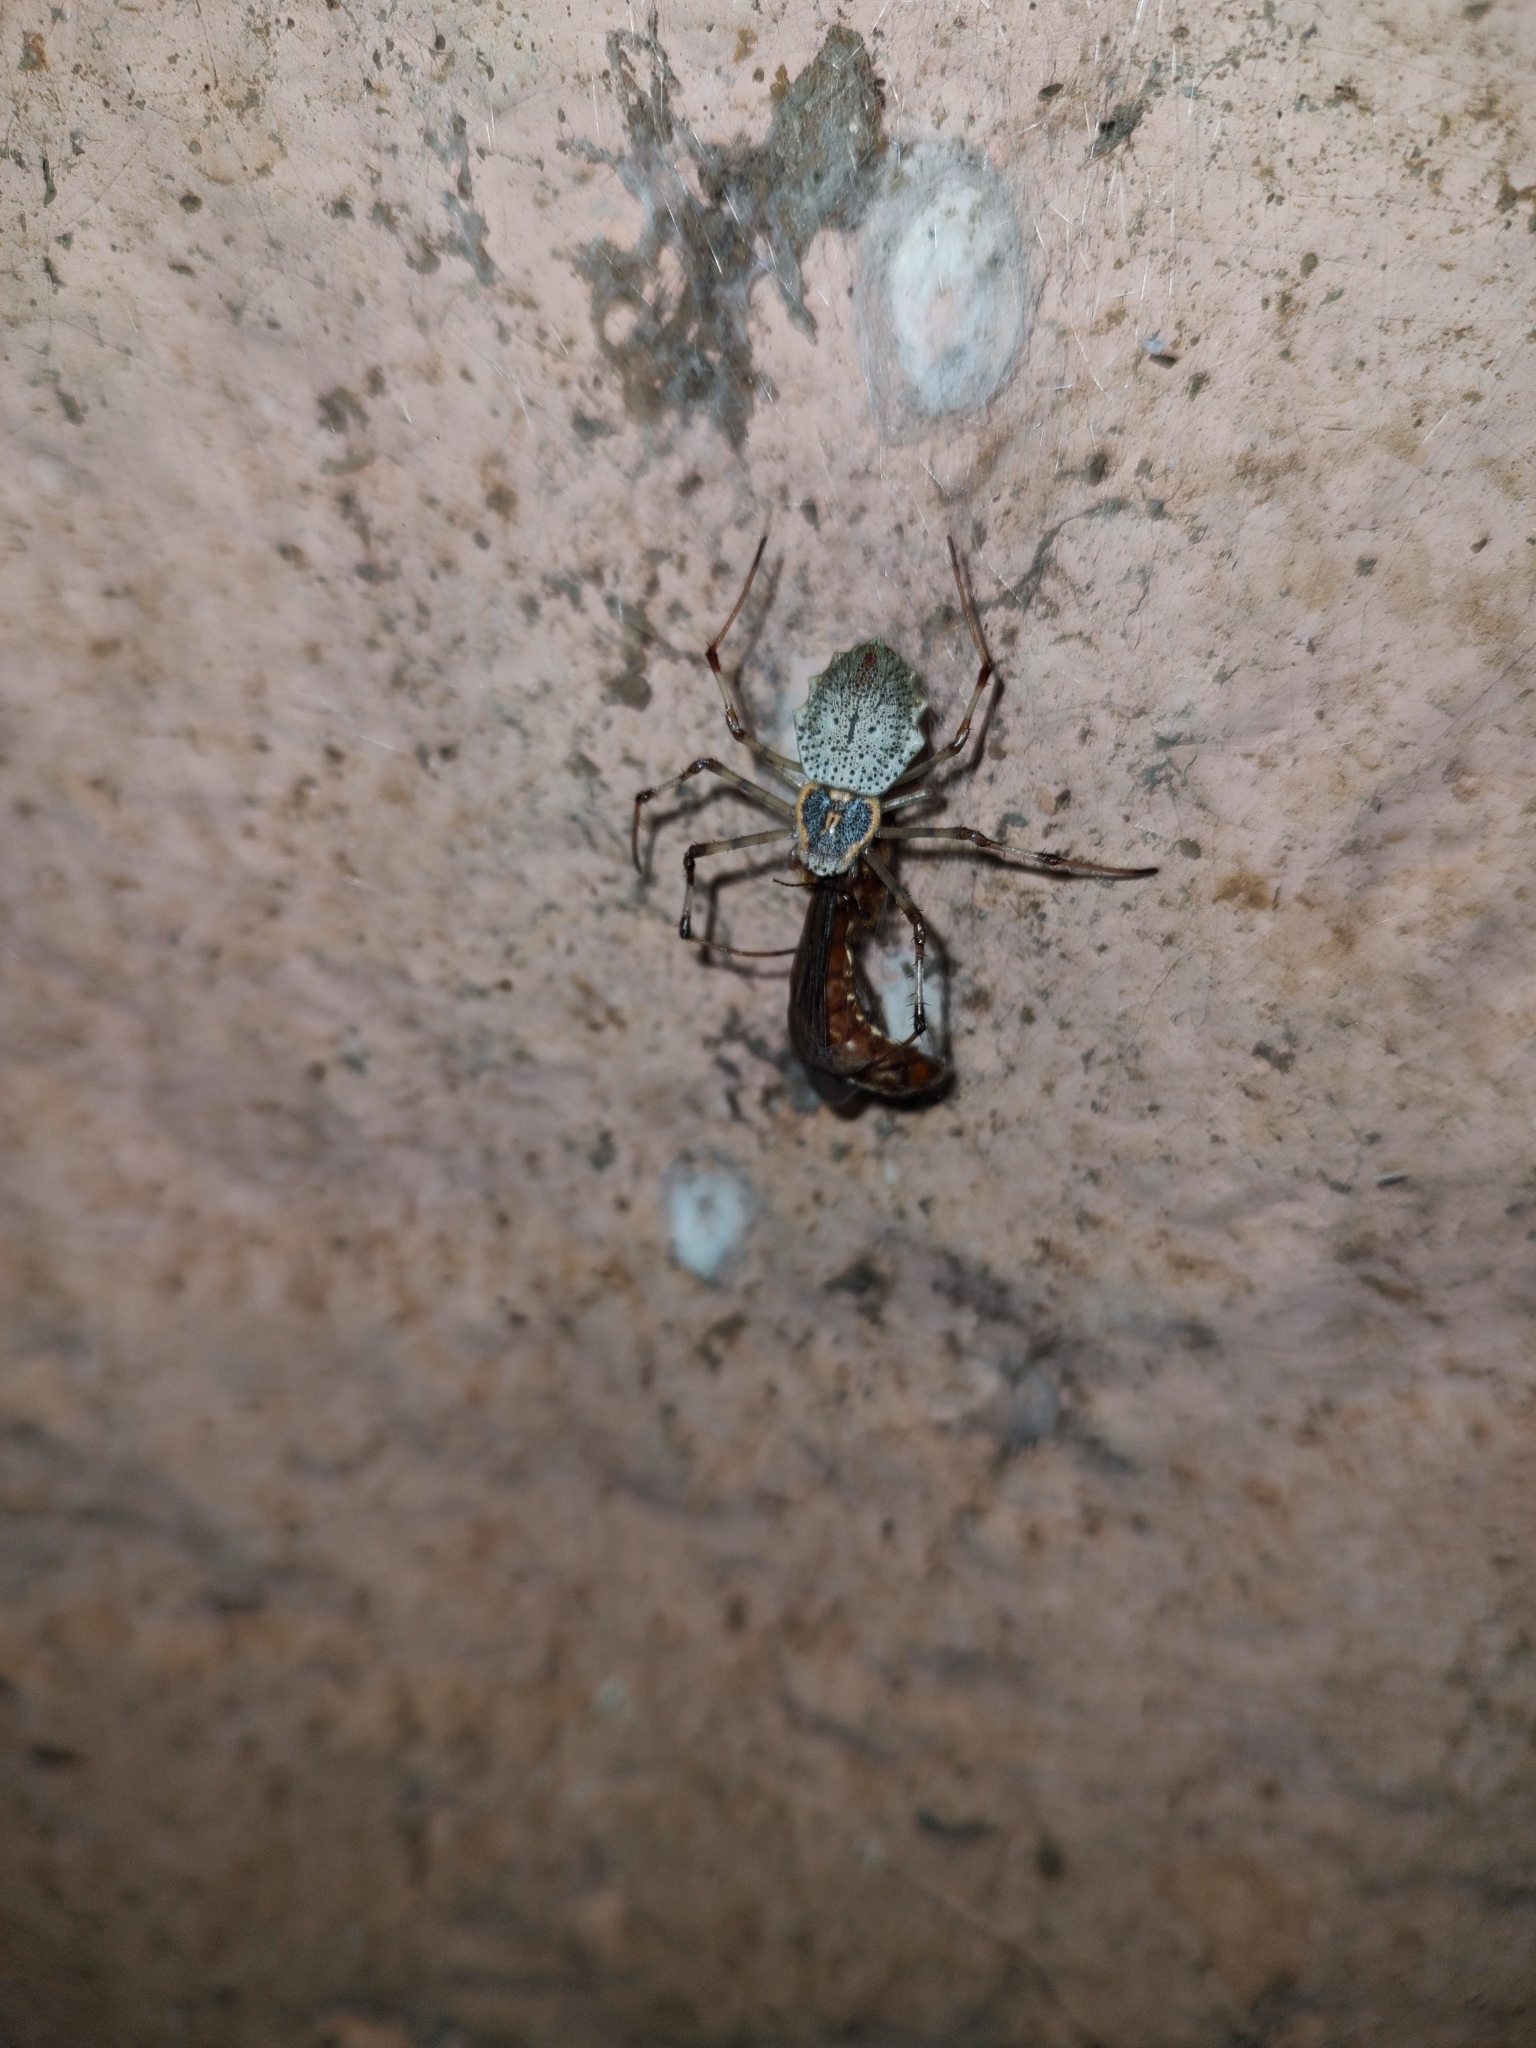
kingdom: Animalia
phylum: Arthropoda
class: Arachnida
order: Araneae
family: Araneidae
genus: Herennia
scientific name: Herennia multipuncta
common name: Spotted coin spider
